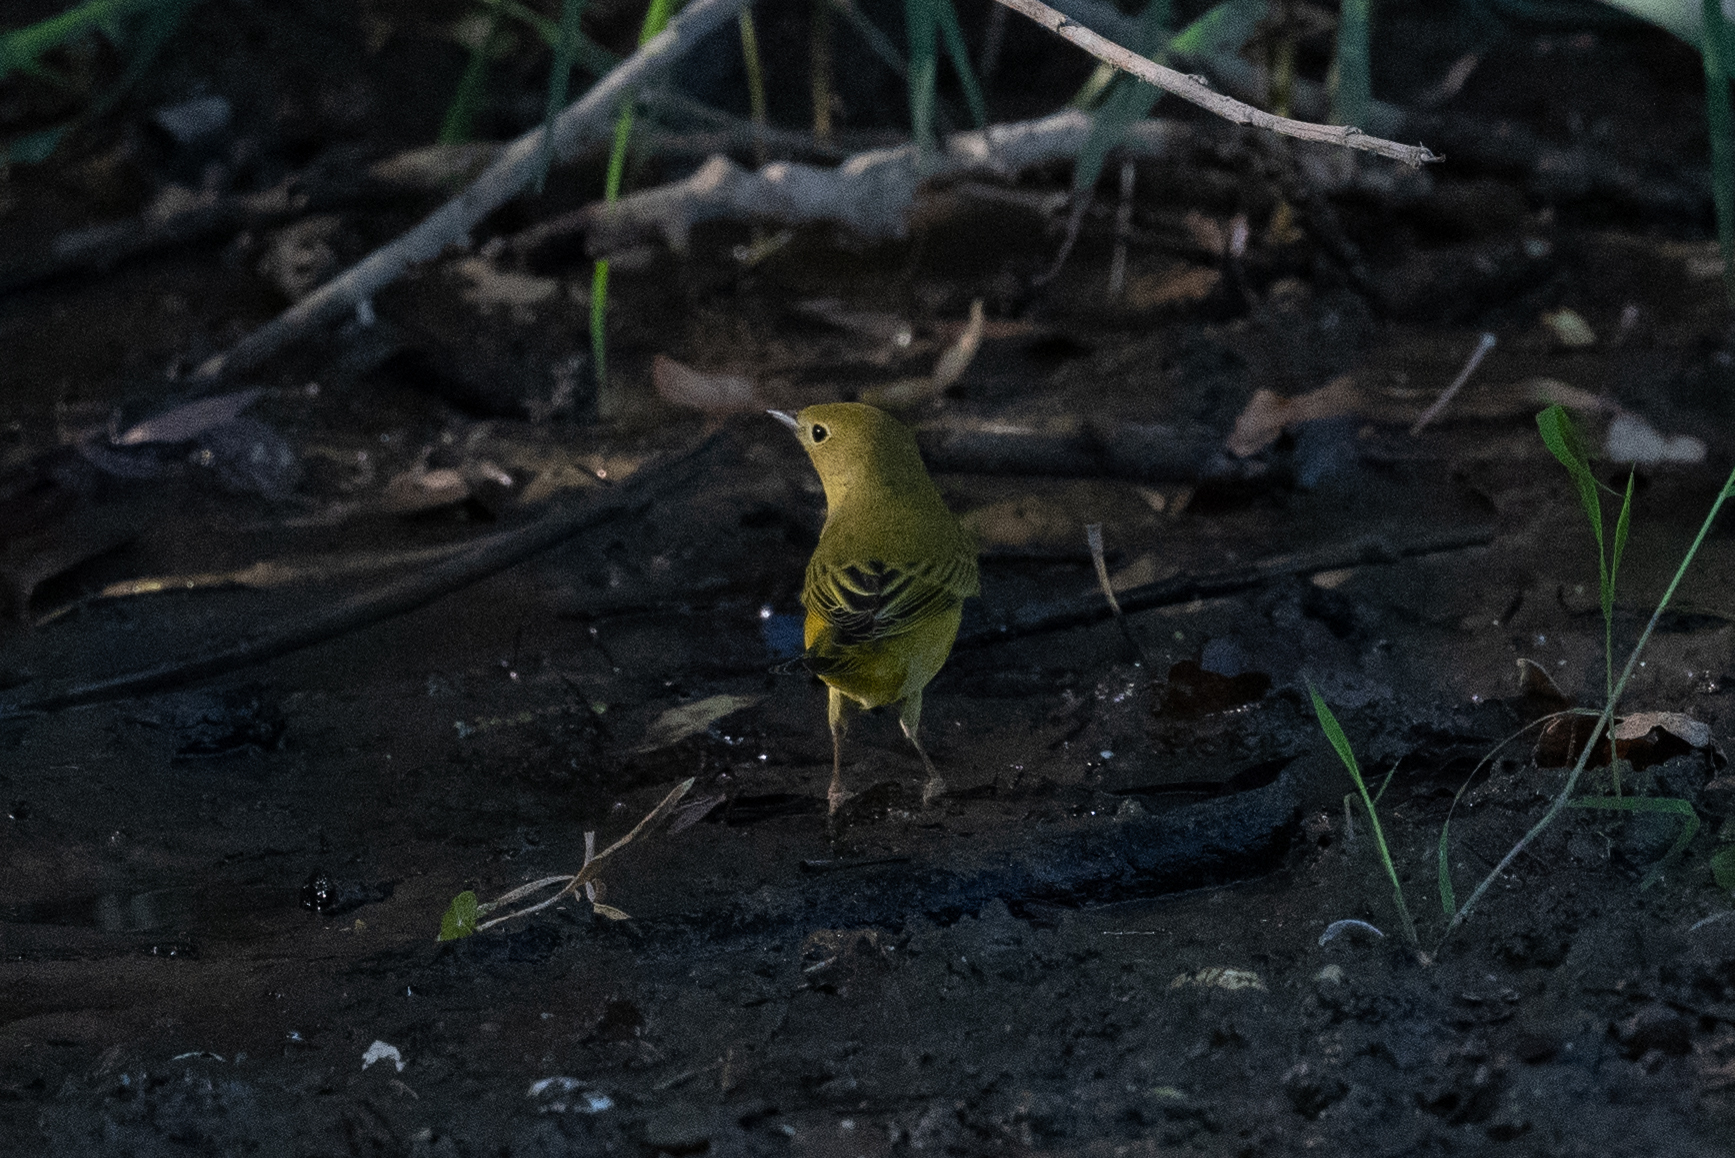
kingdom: Animalia
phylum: Chordata
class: Aves
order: Passeriformes
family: Parulidae
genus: Setophaga
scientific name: Setophaga petechia
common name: Yellow warbler
